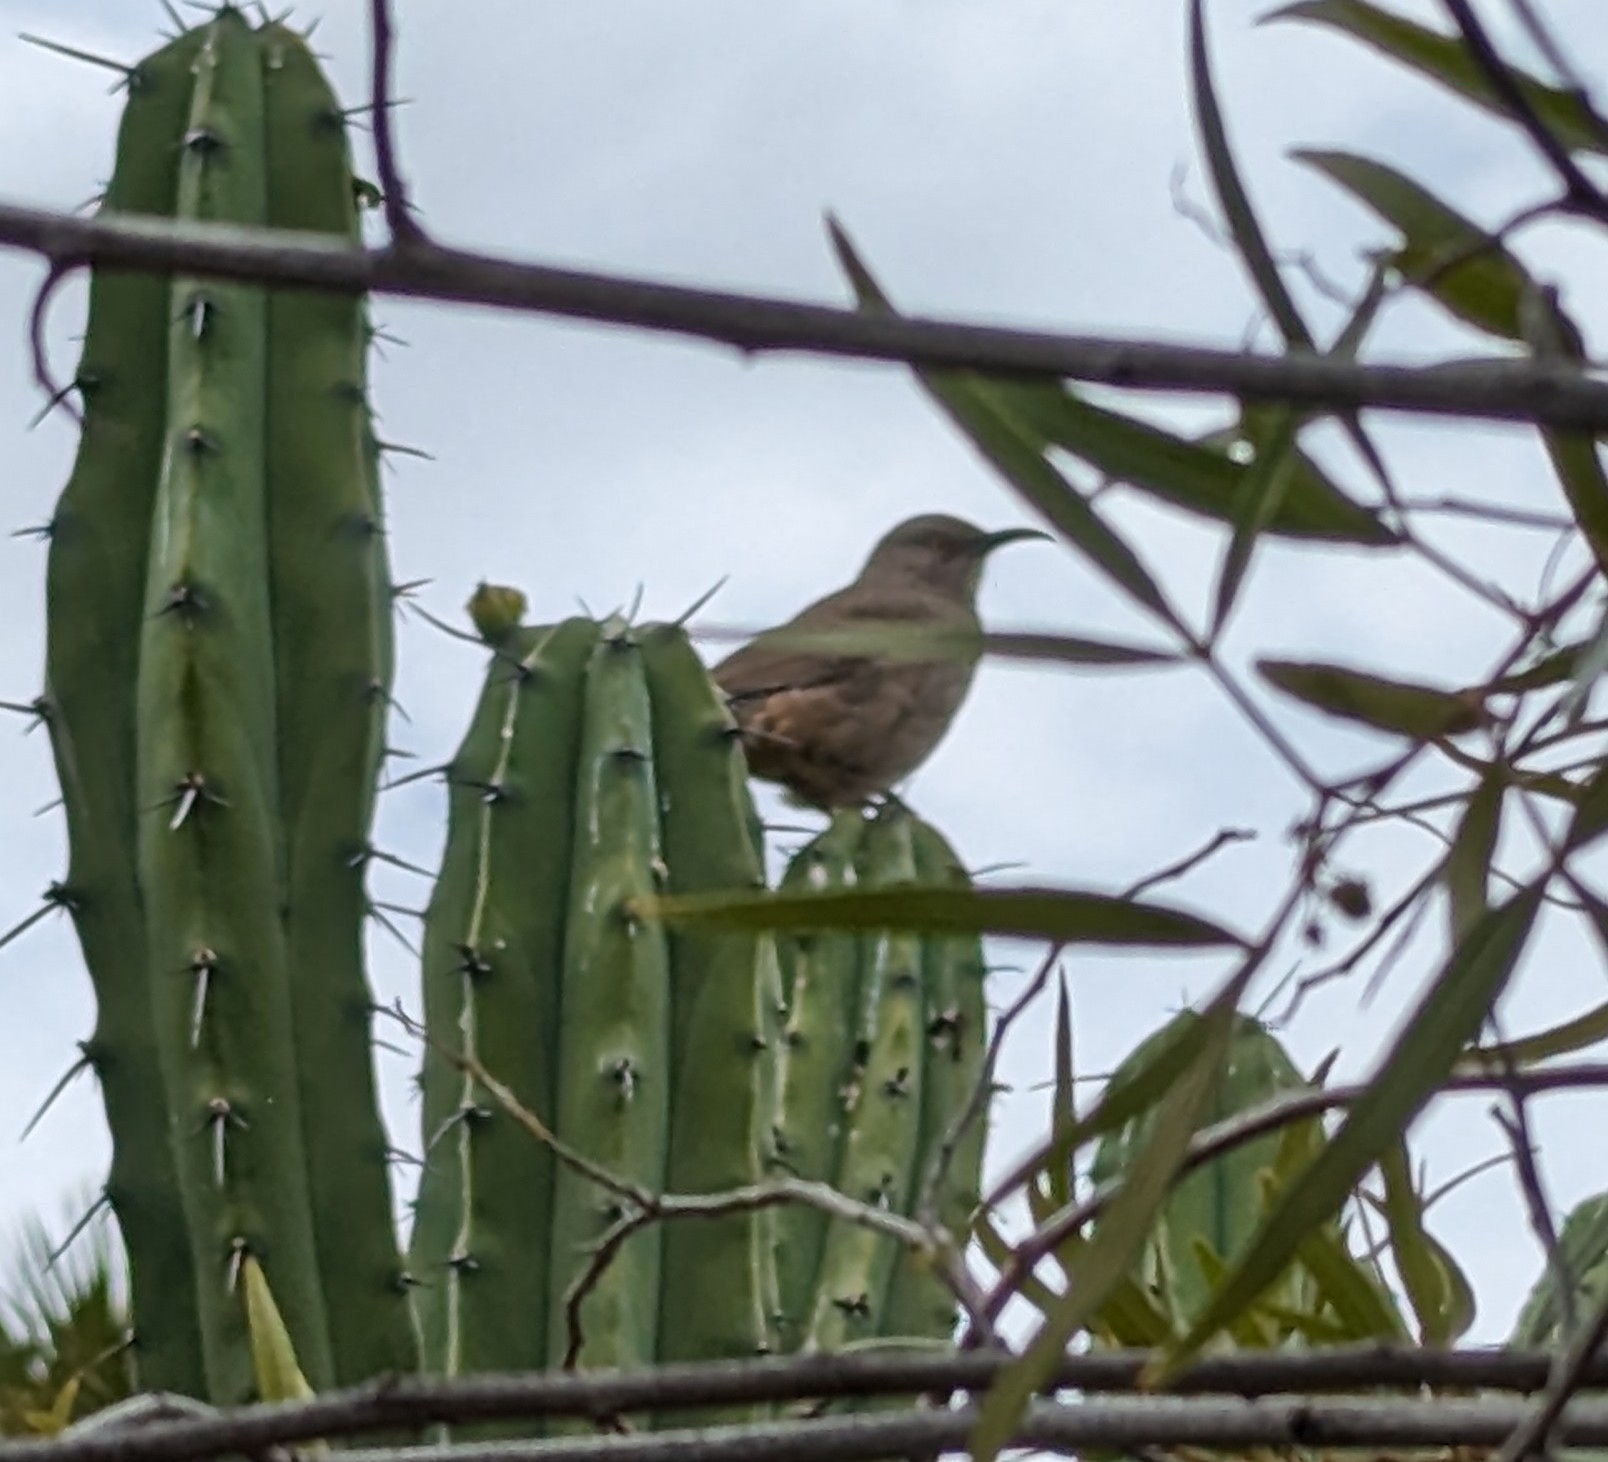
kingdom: Animalia
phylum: Chordata
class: Aves
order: Passeriformes
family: Mimidae
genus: Toxostoma
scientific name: Toxostoma curvirostre
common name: Curve-billed thrasher
